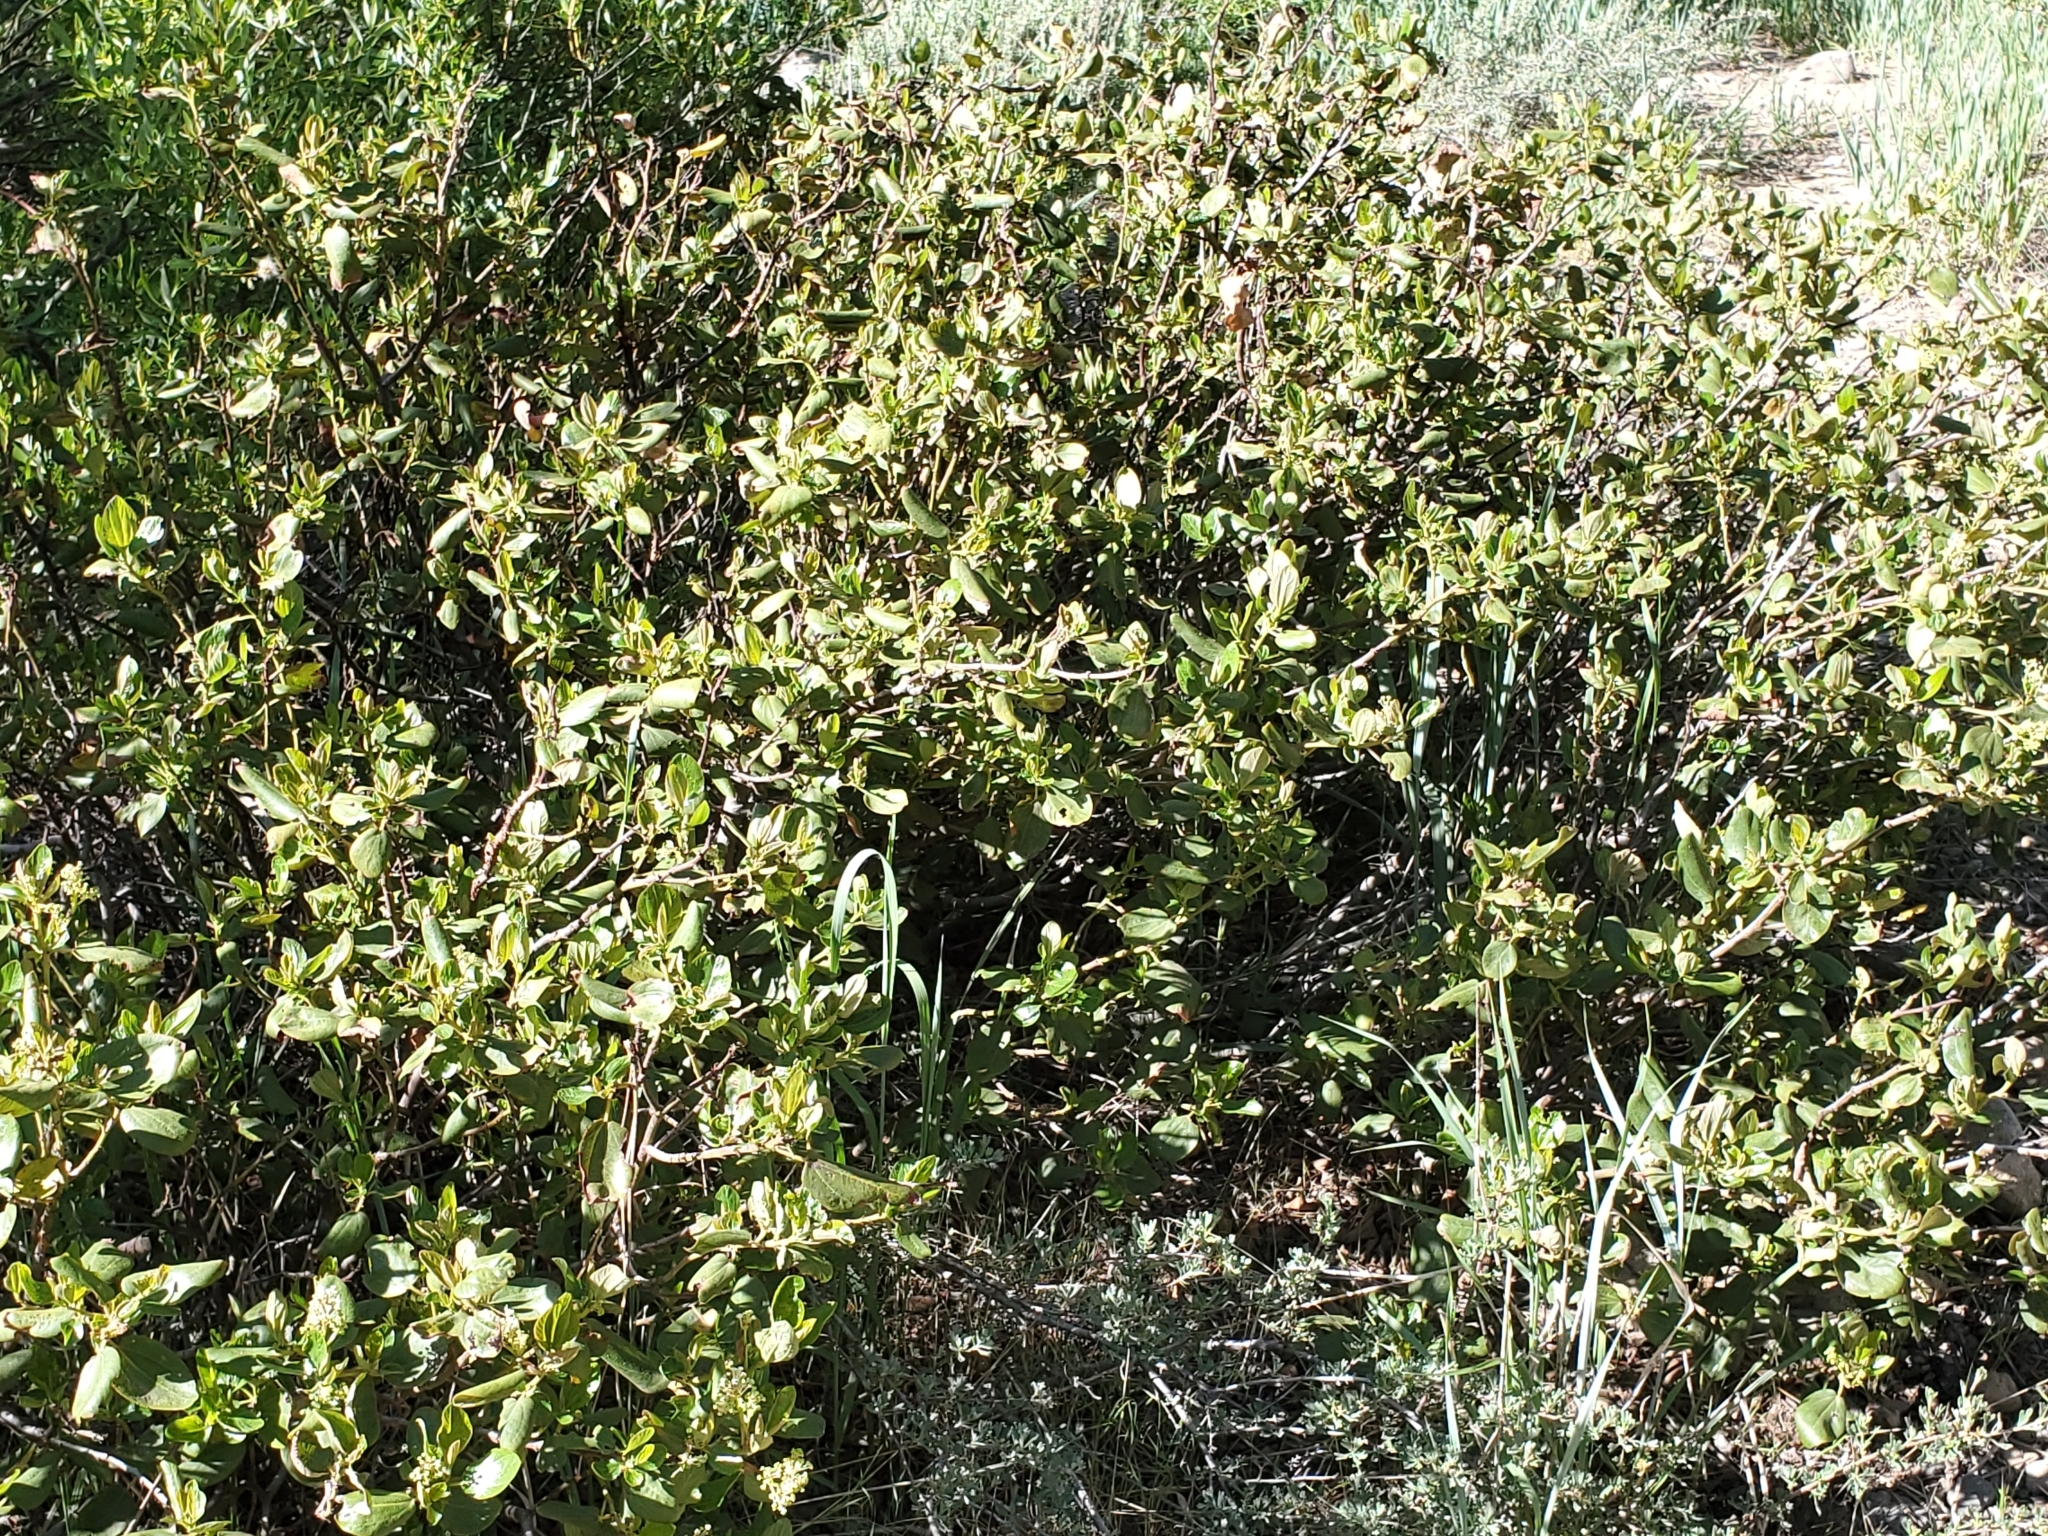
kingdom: Plantae
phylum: Tracheophyta
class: Magnoliopsida
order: Rosales
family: Rhamnaceae
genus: Ceanothus
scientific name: Ceanothus velutinus
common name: Snowbrush
